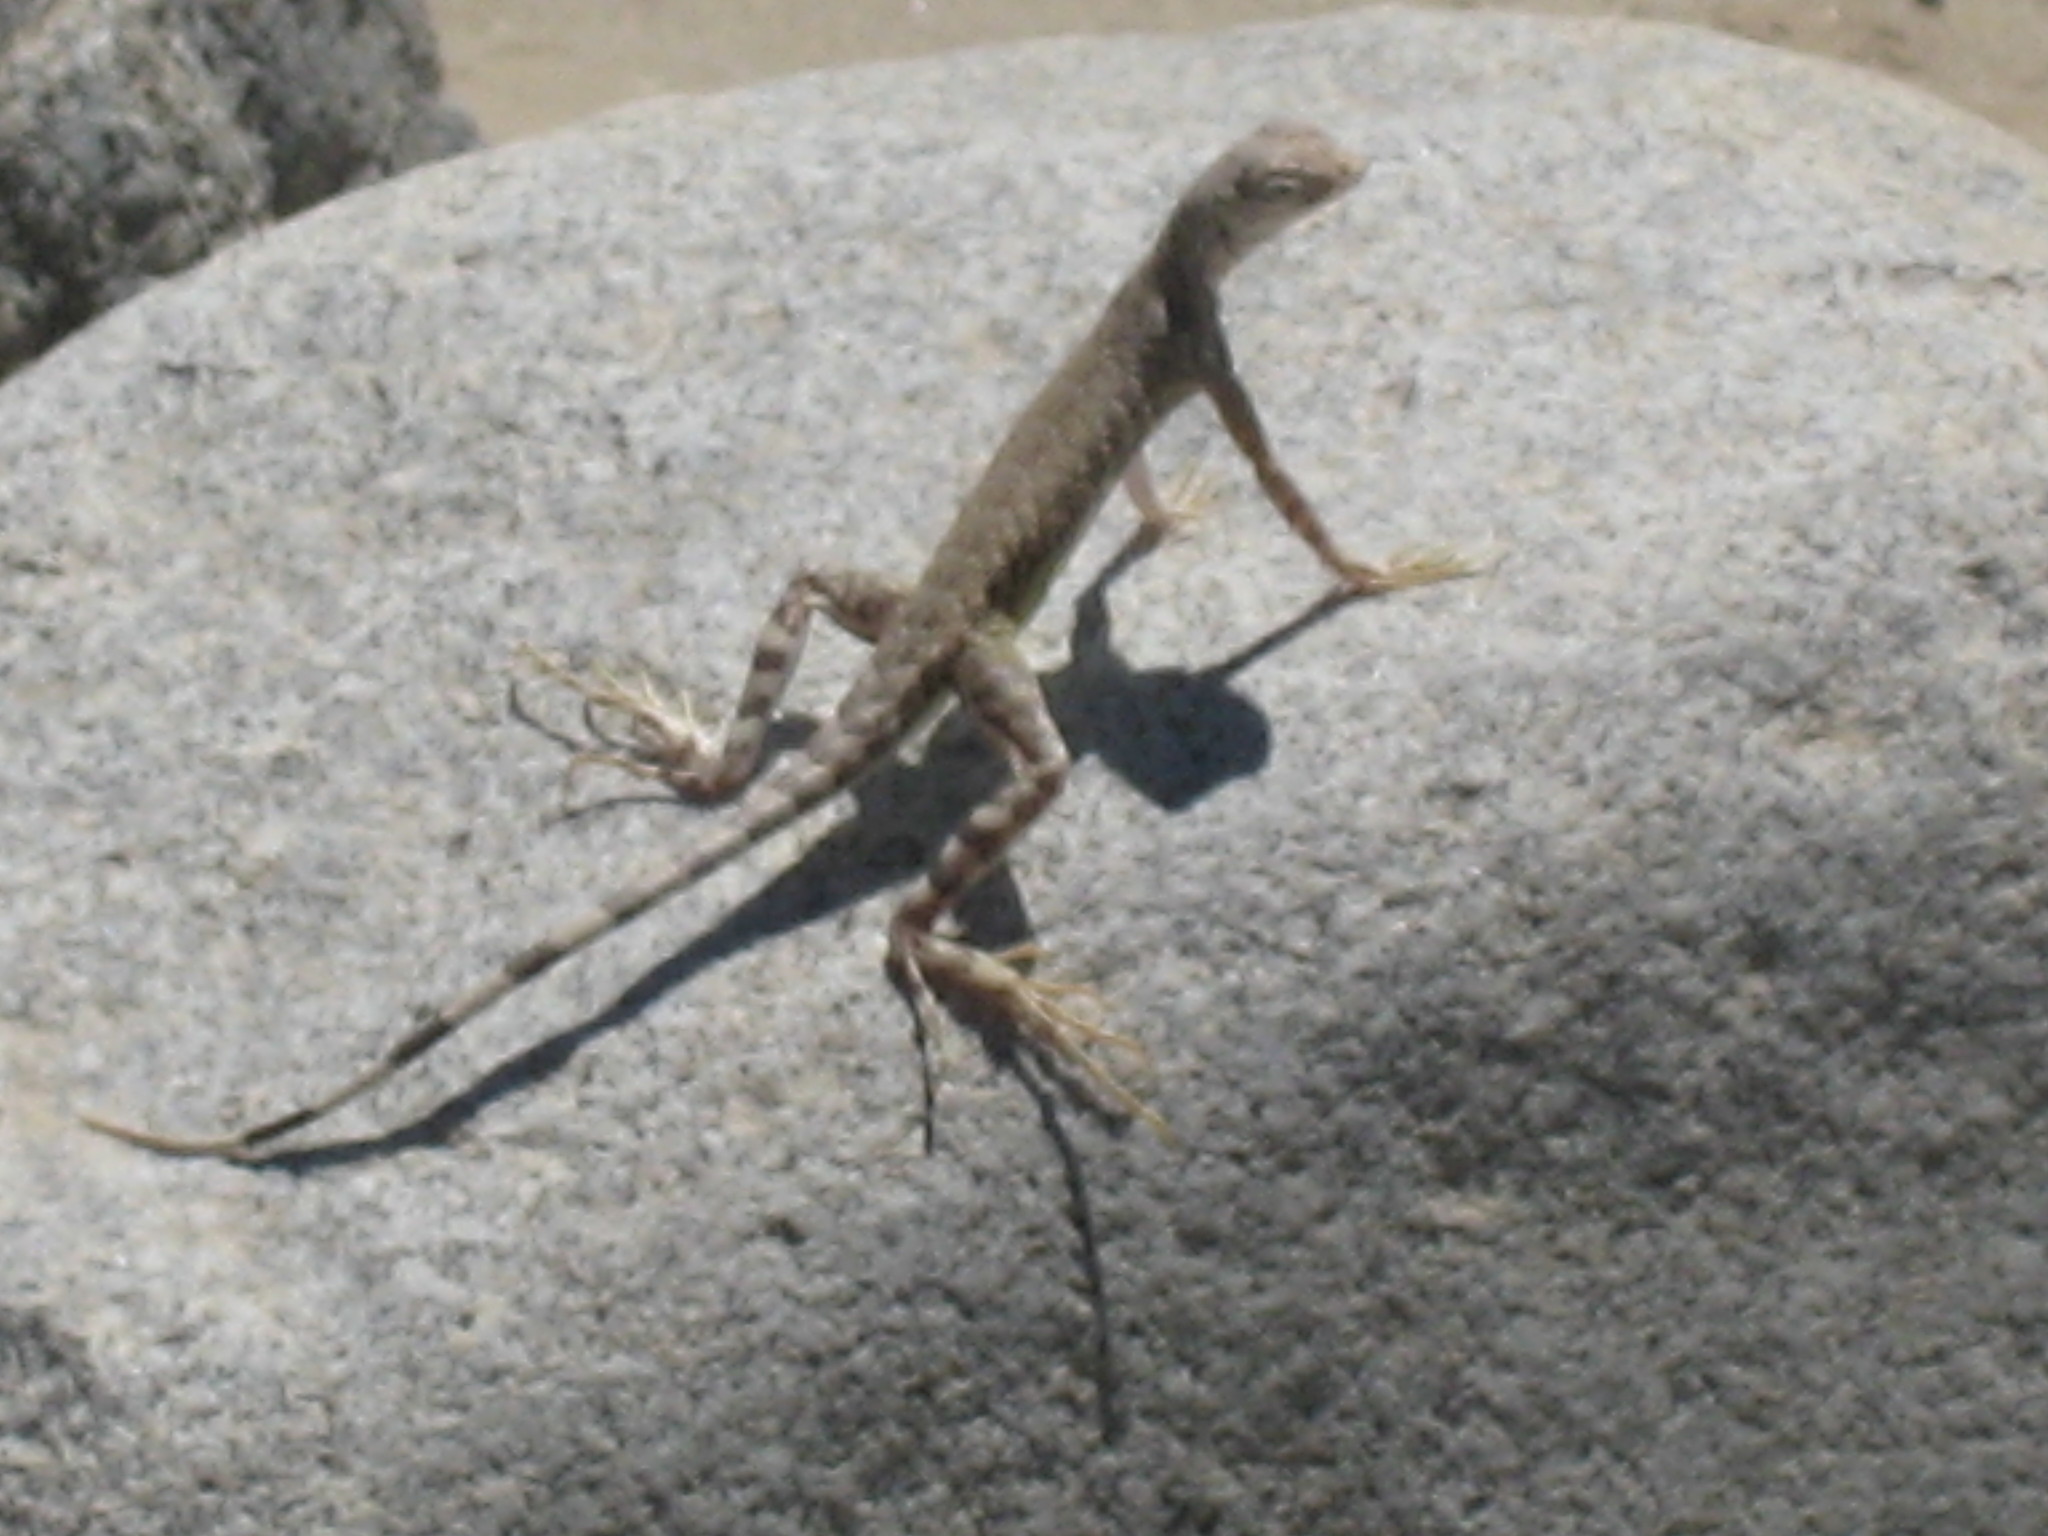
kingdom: Animalia
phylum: Chordata
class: Squamata
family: Phrynosomatidae
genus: Callisaurus
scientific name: Callisaurus draconoides
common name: Zebra-tailed lizard
